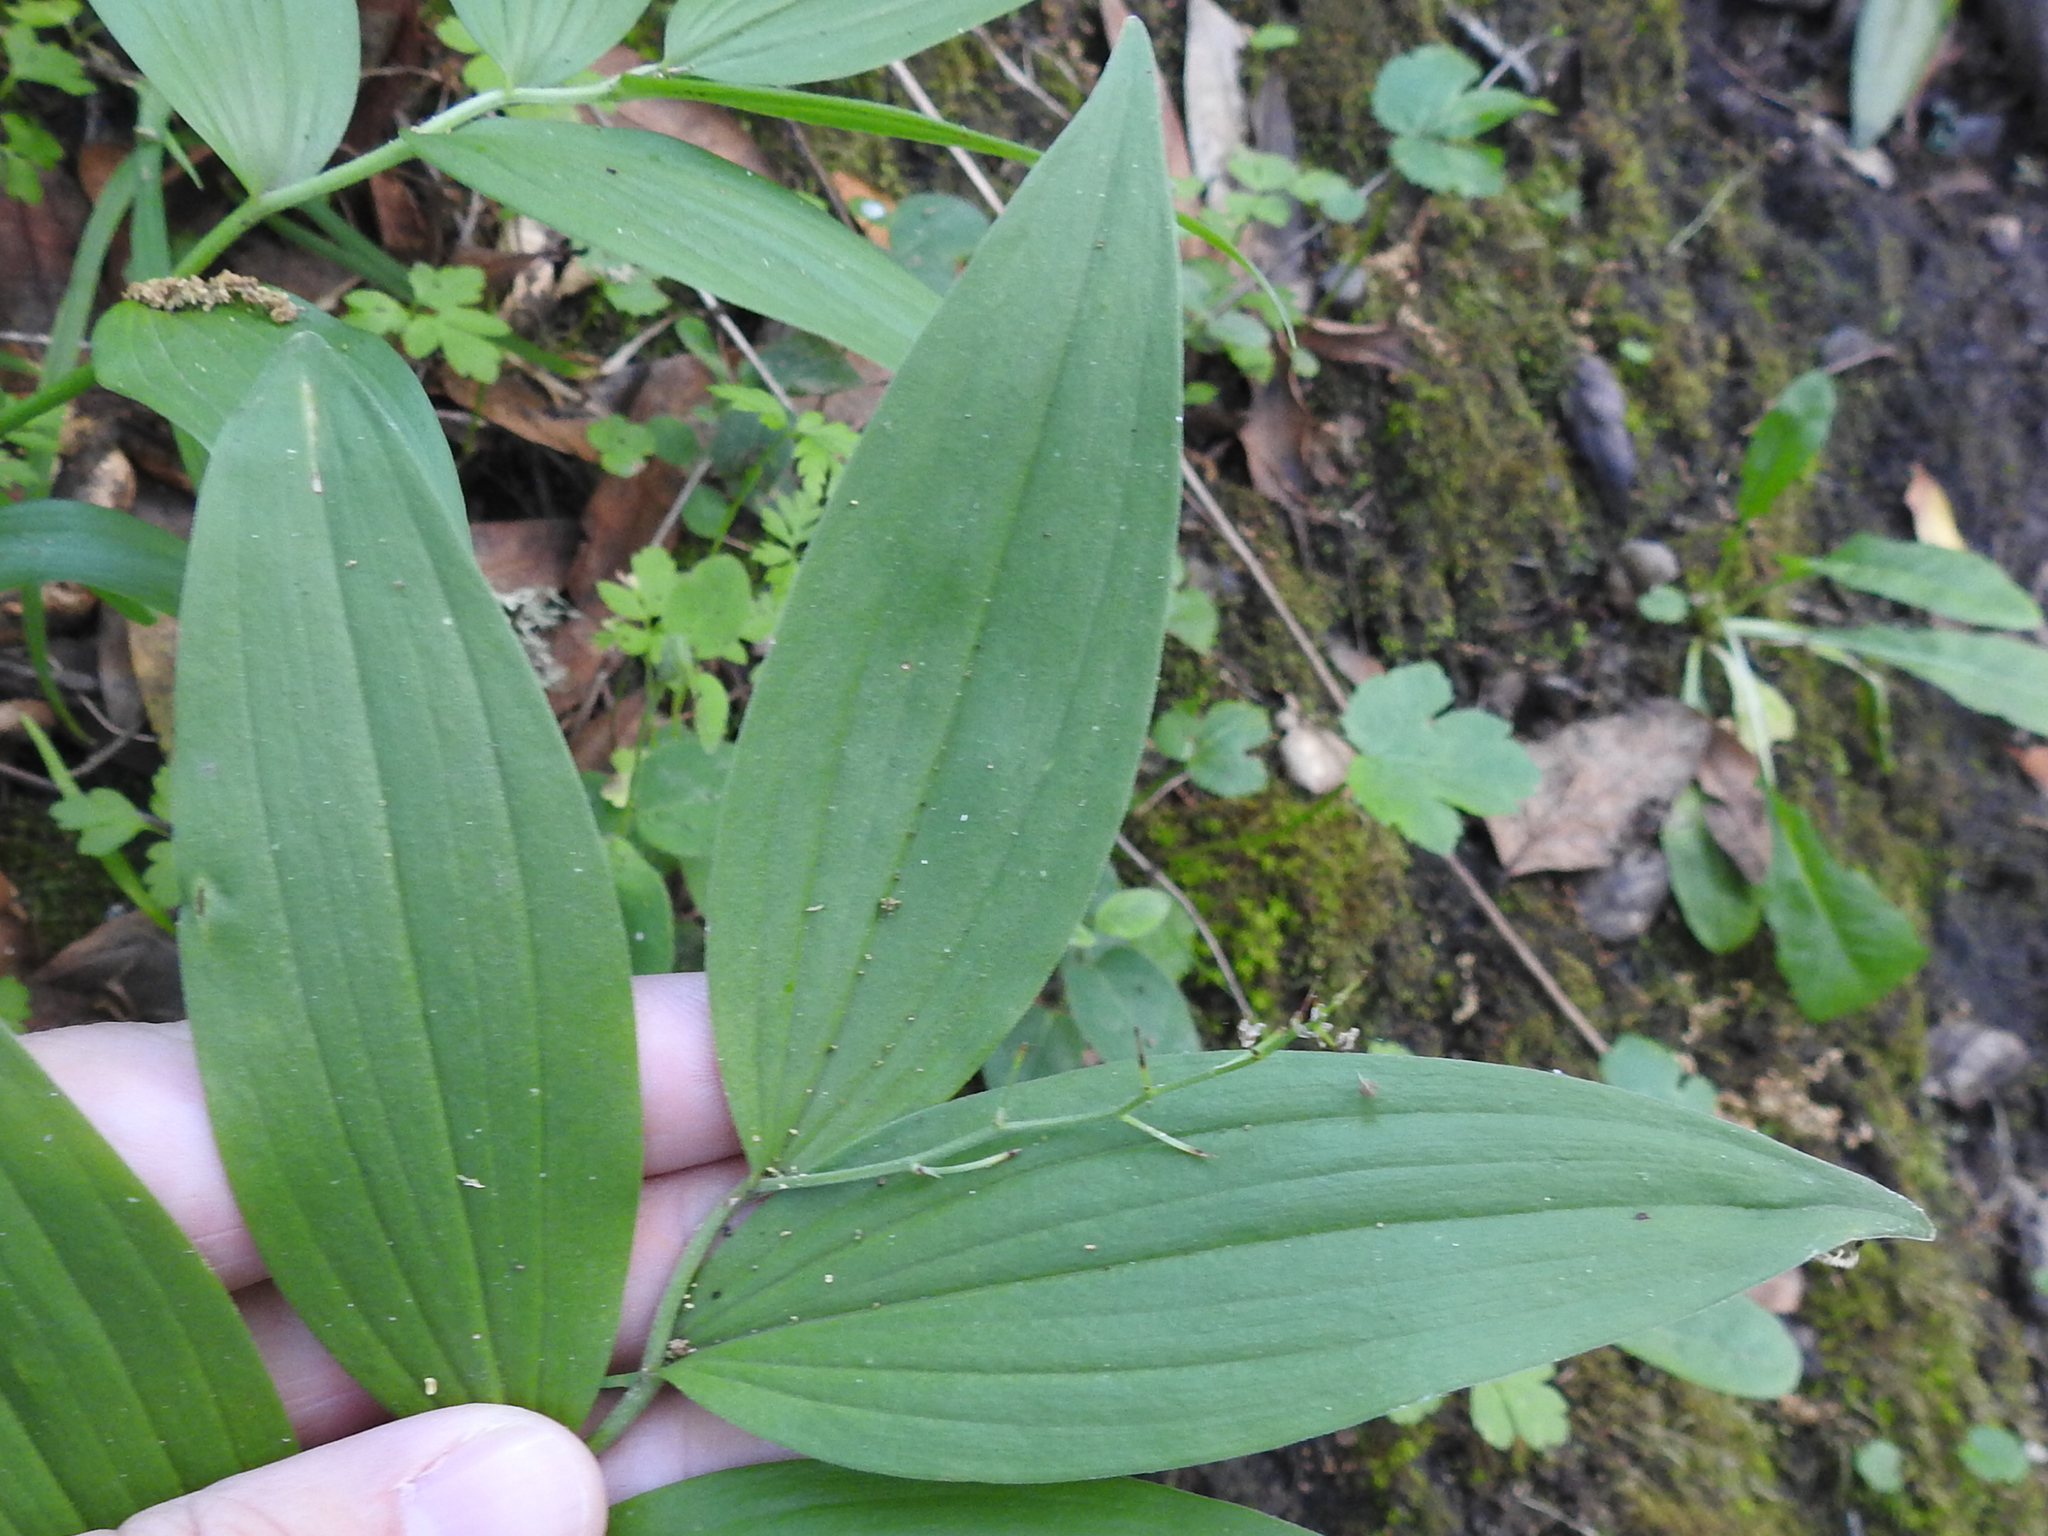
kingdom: Plantae
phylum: Tracheophyta
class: Liliopsida
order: Asparagales
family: Asparagaceae
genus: Maianthemum
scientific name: Maianthemum stellatum
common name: Little false solomon's seal
